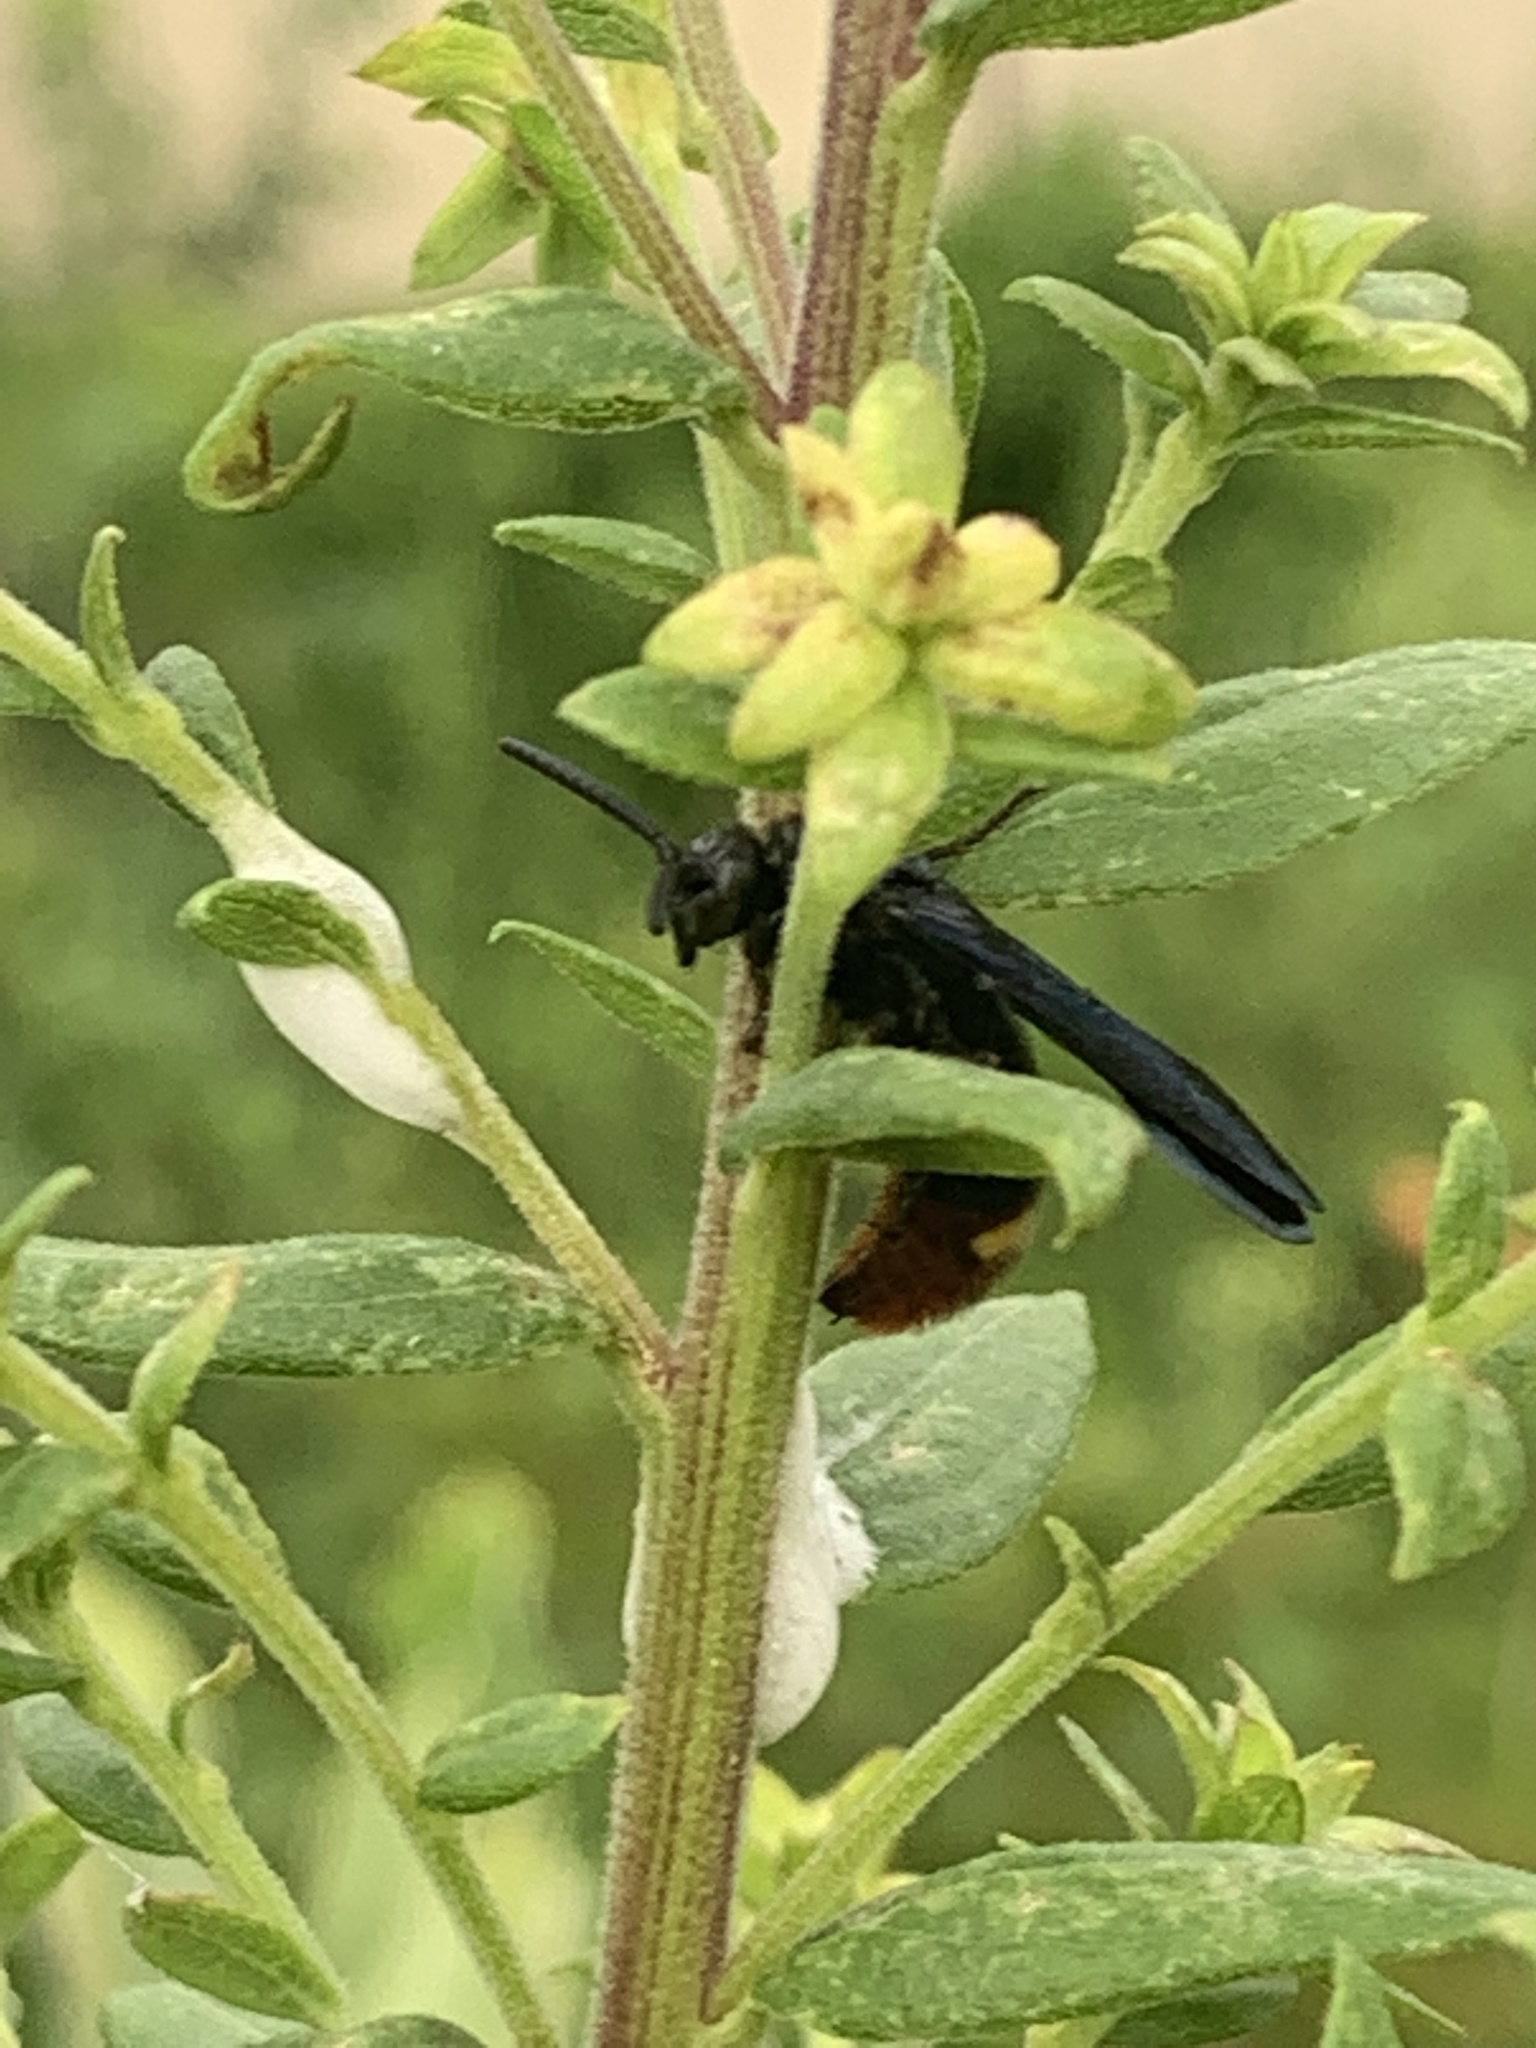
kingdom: Animalia
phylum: Arthropoda
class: Insecta
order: Hymenoptera
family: Scoliidae
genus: Scolia
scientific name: Scolia dubia
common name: Blue-winged scoliid wasp
